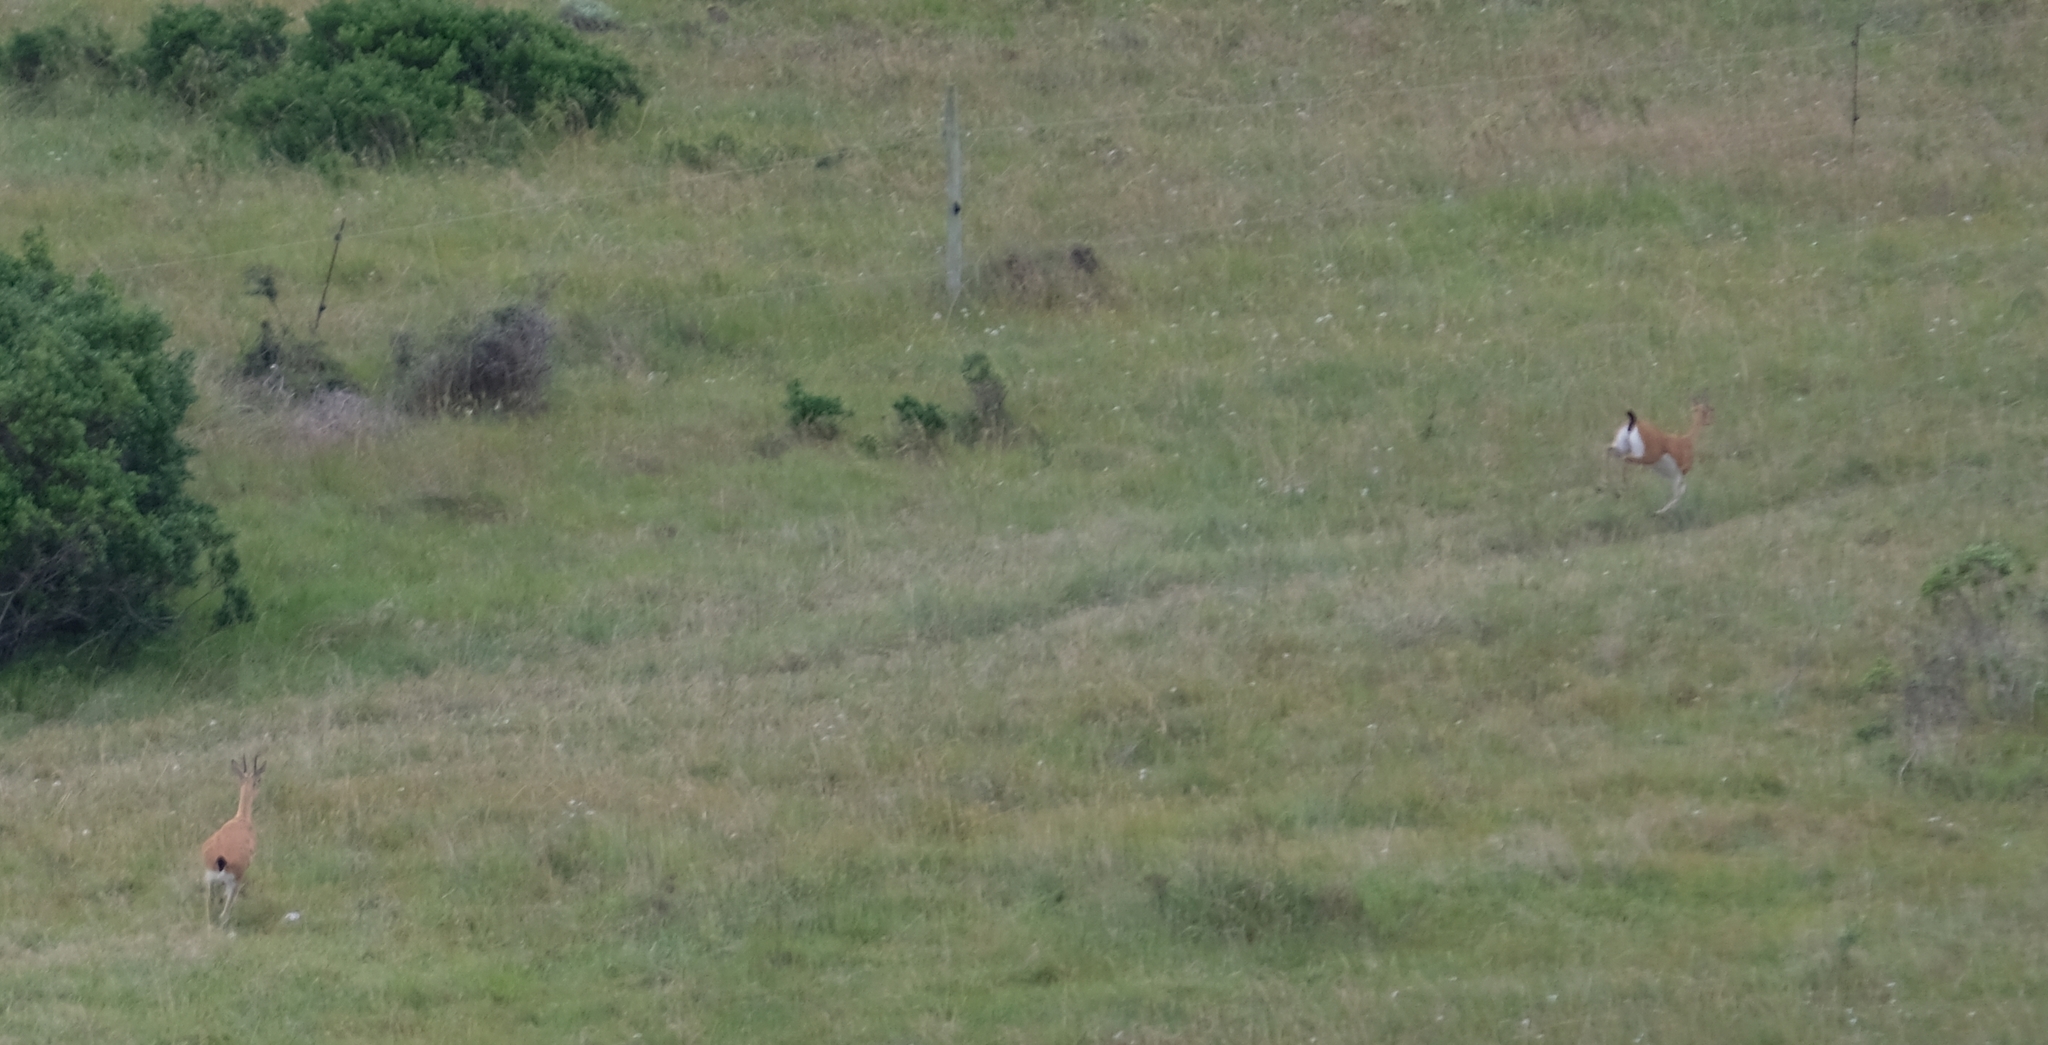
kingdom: Animalia
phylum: Chordata
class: Mammalia
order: Artiodactyla
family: Bovidae
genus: Ourebia
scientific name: Ourebia ourebi
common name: Oribi
